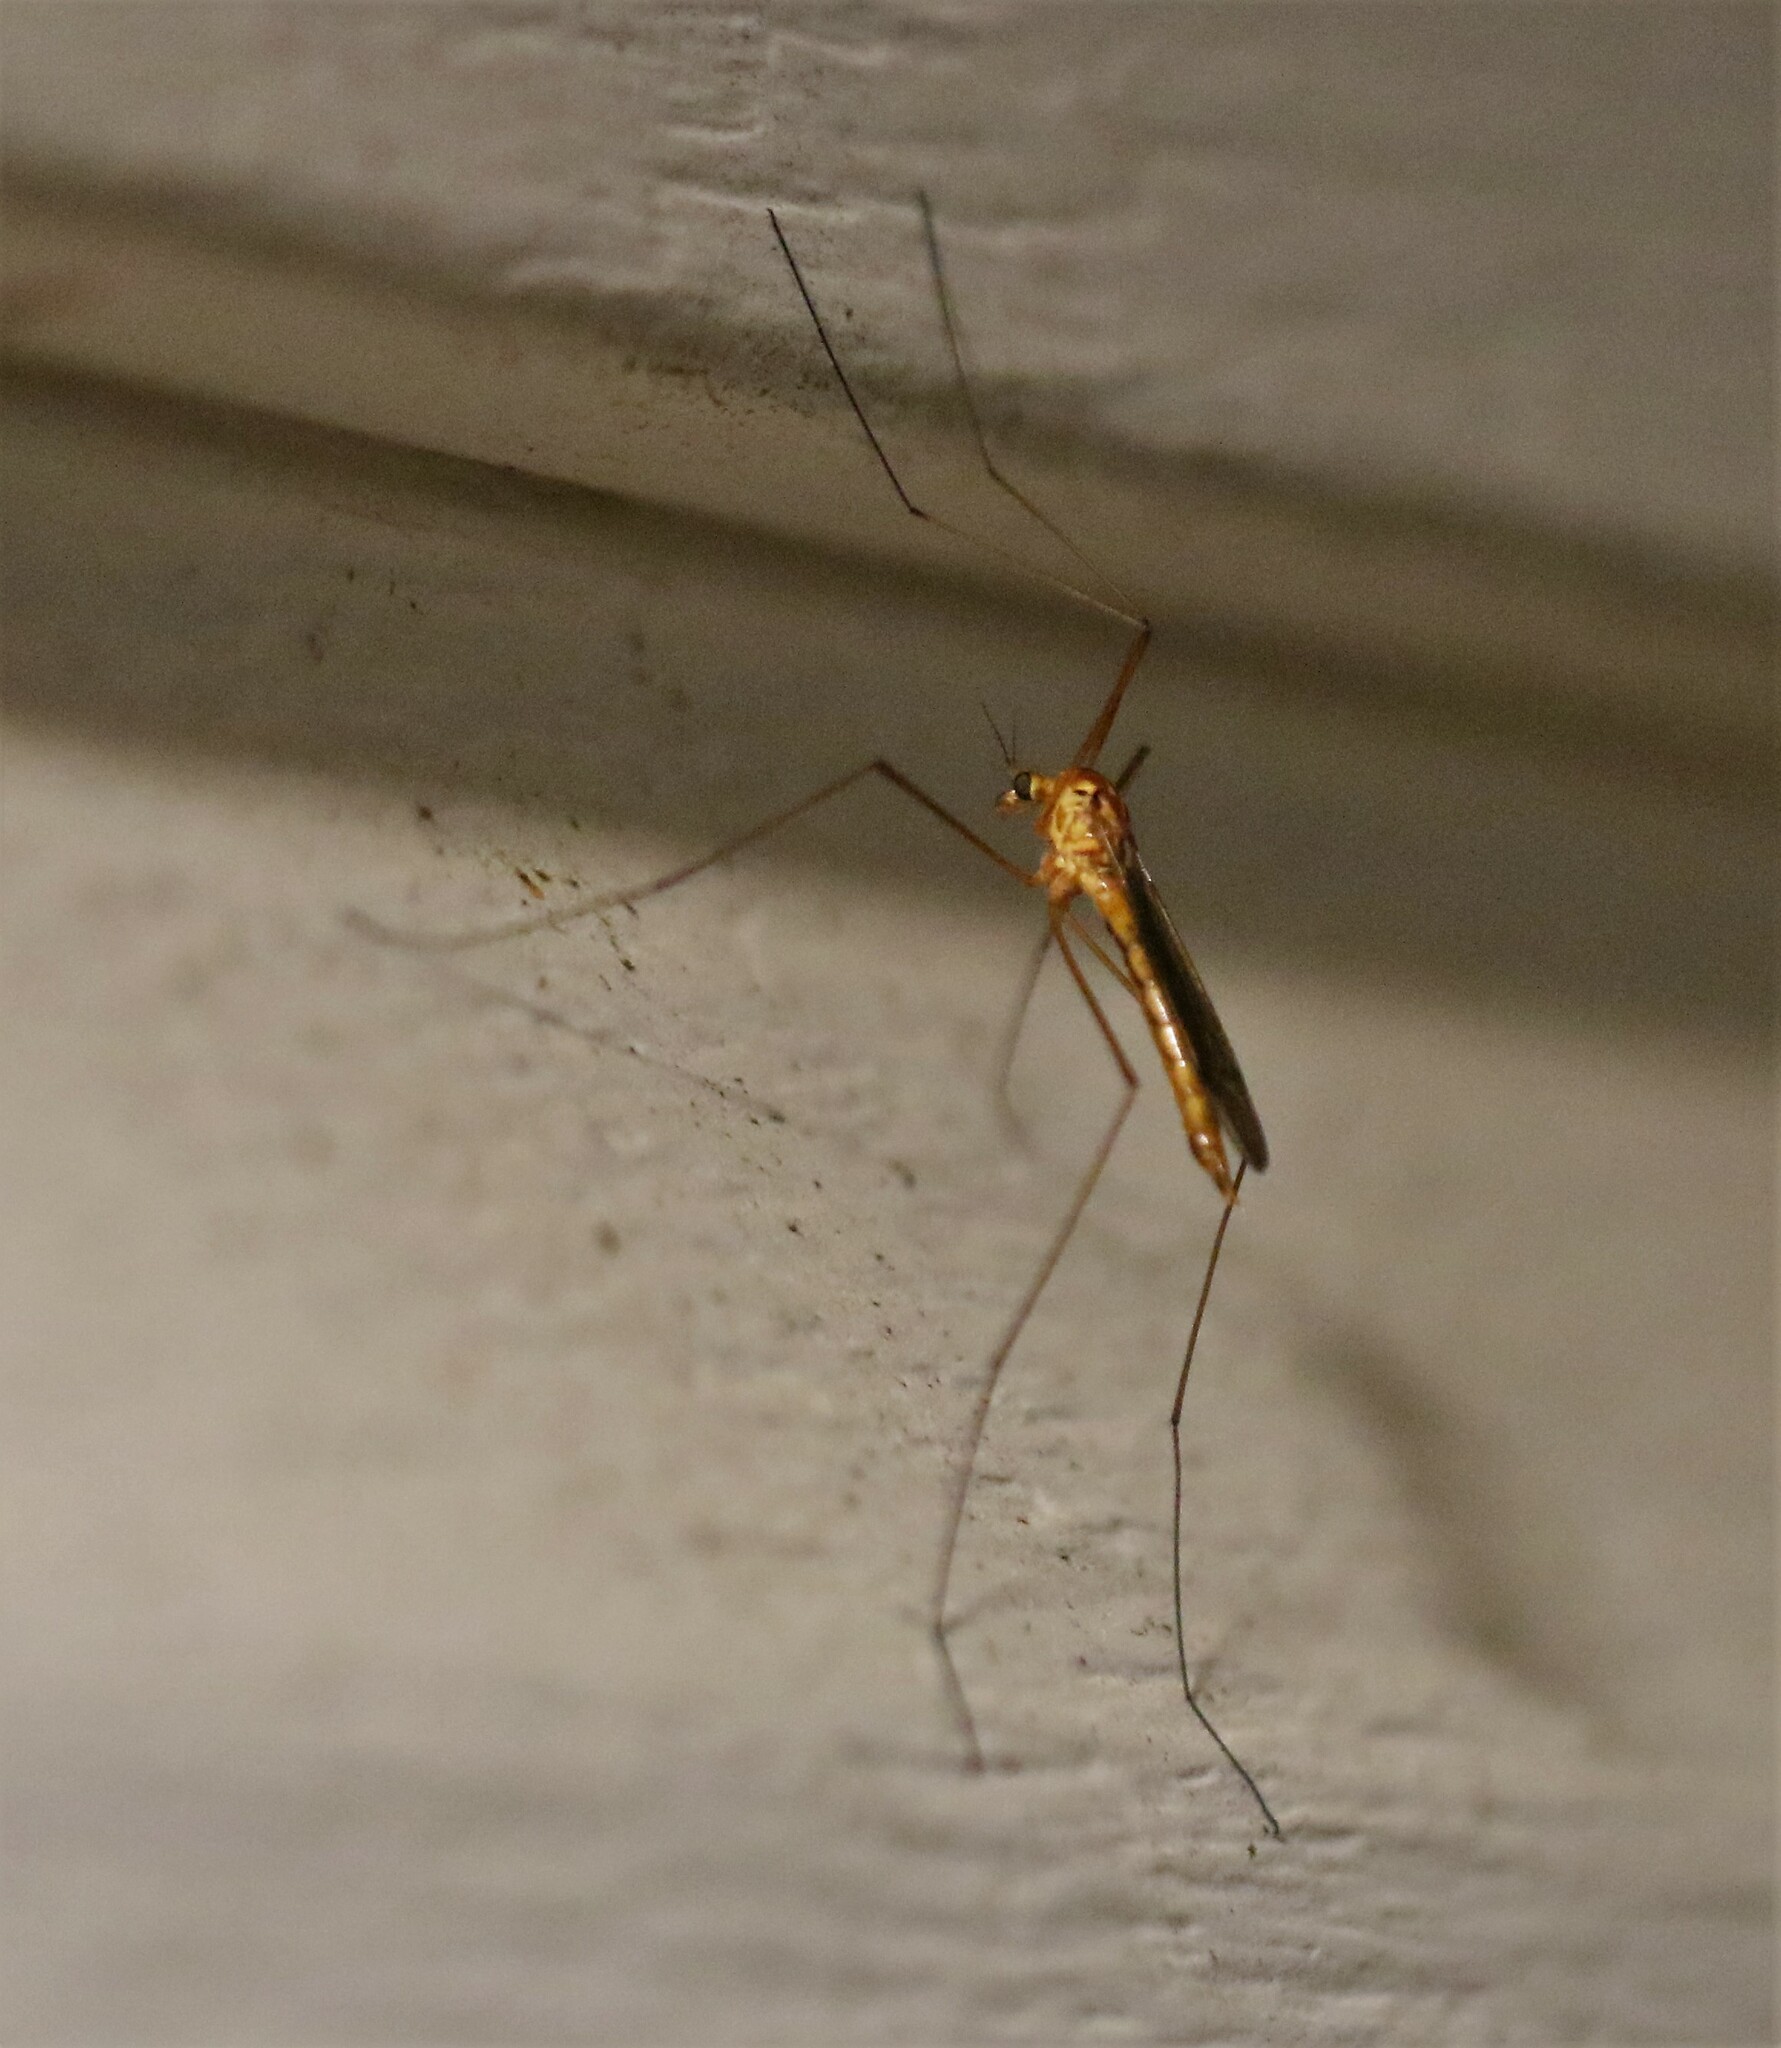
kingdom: Animalia
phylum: Arthropoda
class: Insecta
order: Diptera
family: Tipulidae
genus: Nephrotoma
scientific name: Nephrotoma ferruginea
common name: Ferruginous tiger crane fly
